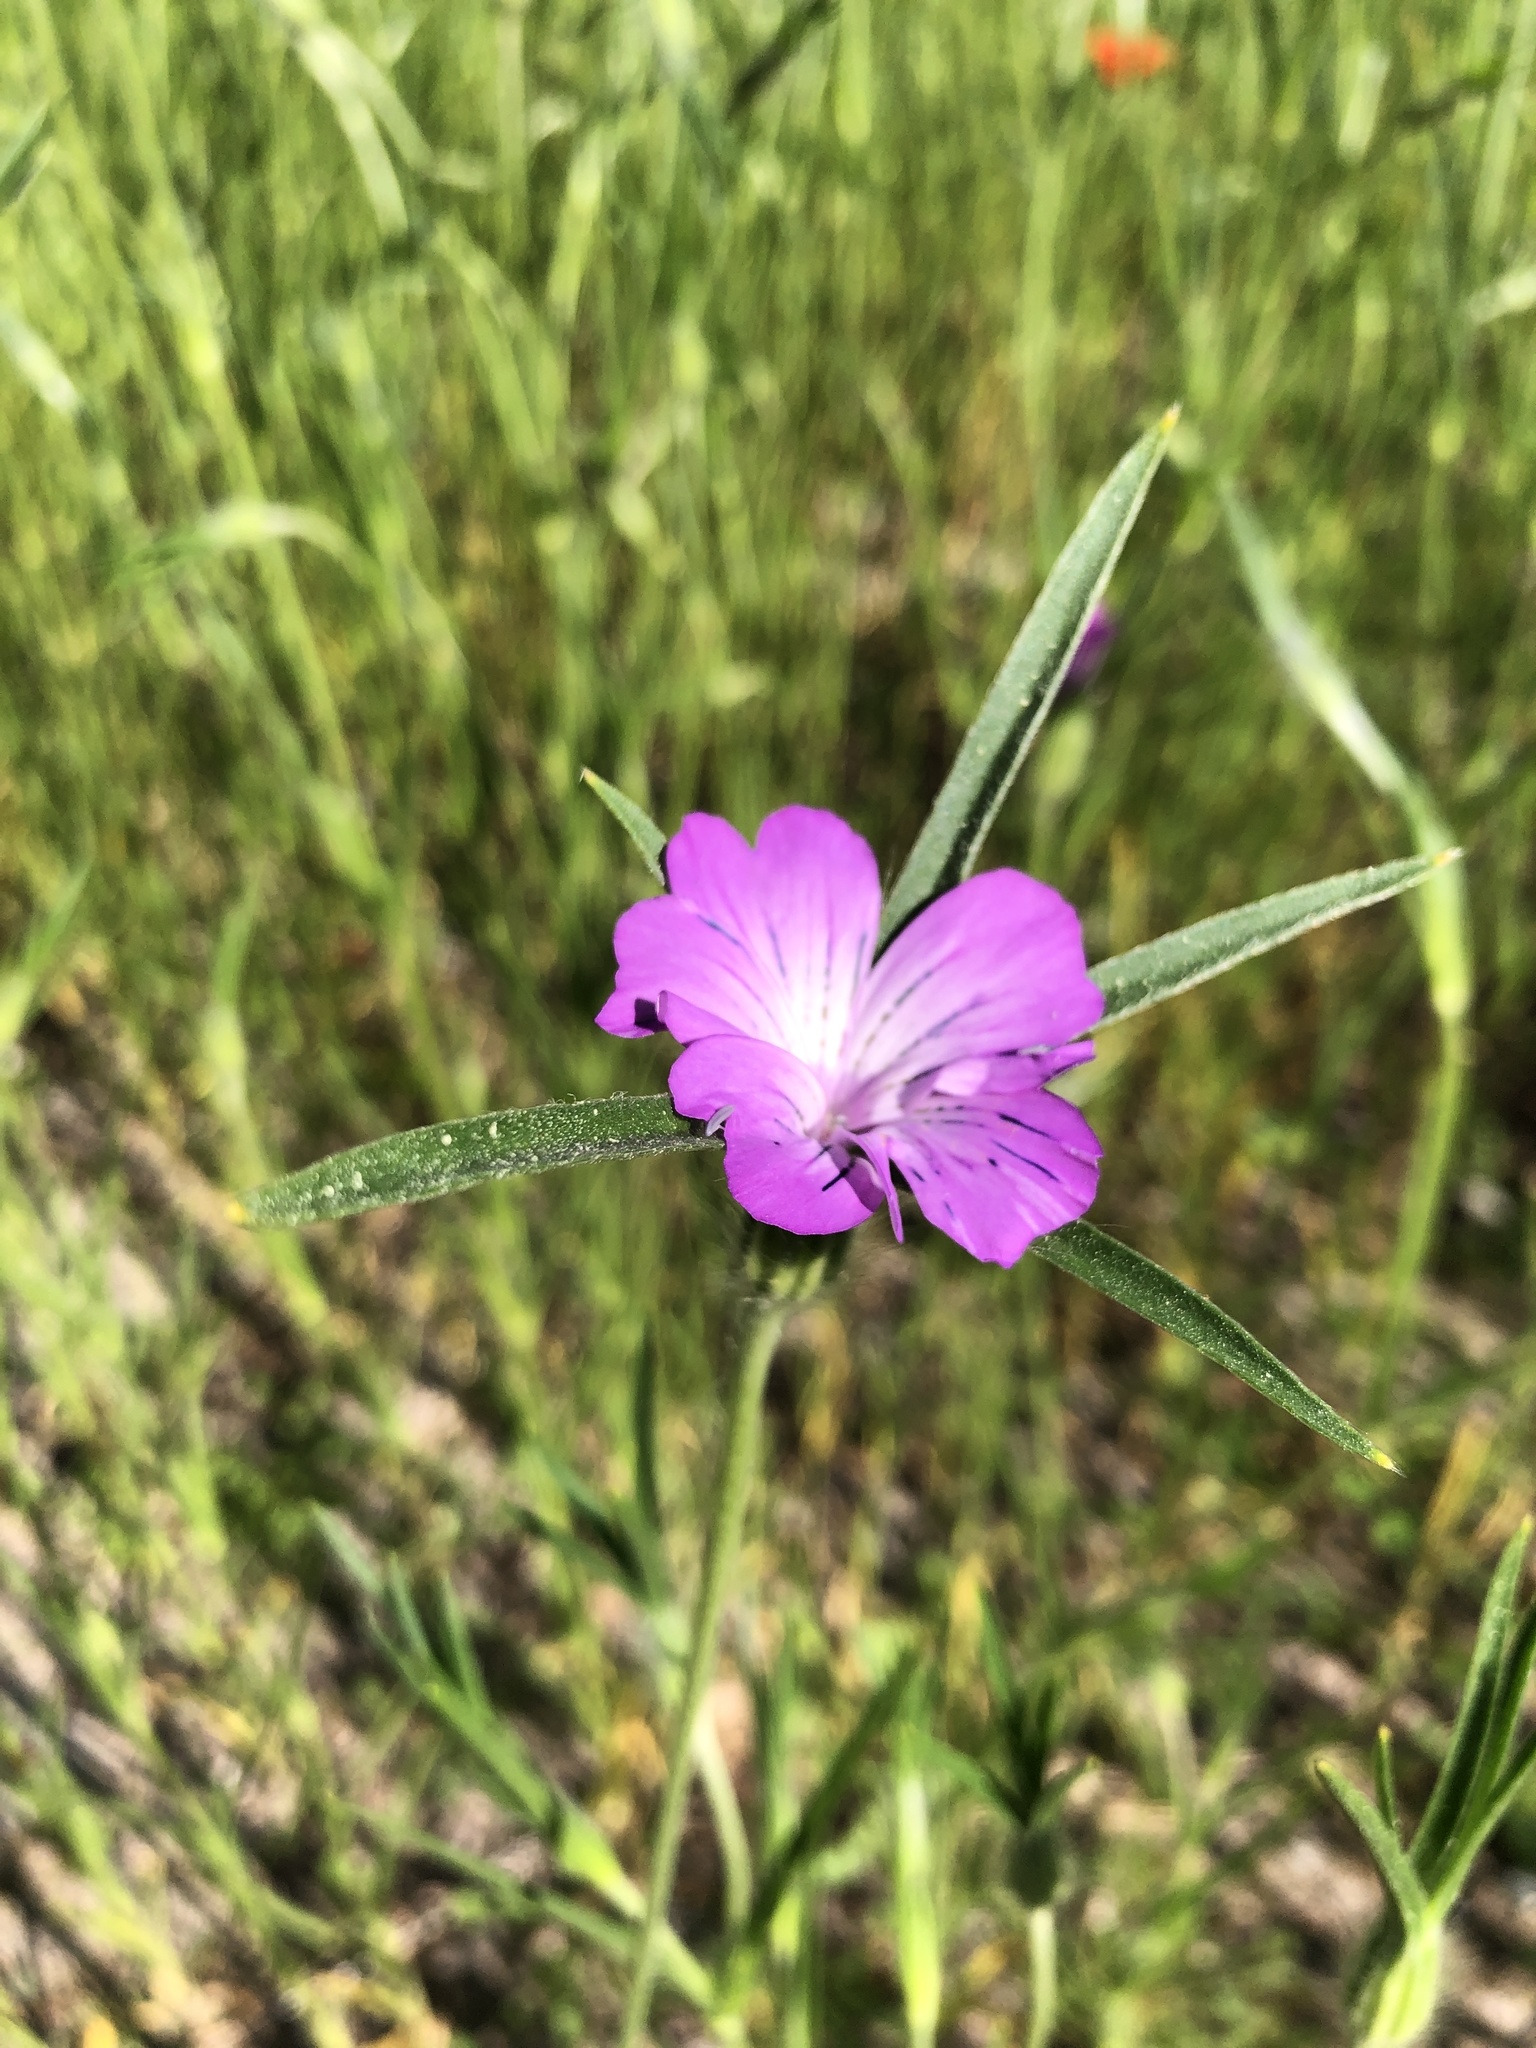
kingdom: Plantae
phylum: Tracheophyta
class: Magnoliopsida
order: Caryophyllales
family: Caryophyllaceae
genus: Agrostemma
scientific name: Agrostemma githago
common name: Common corncockle
